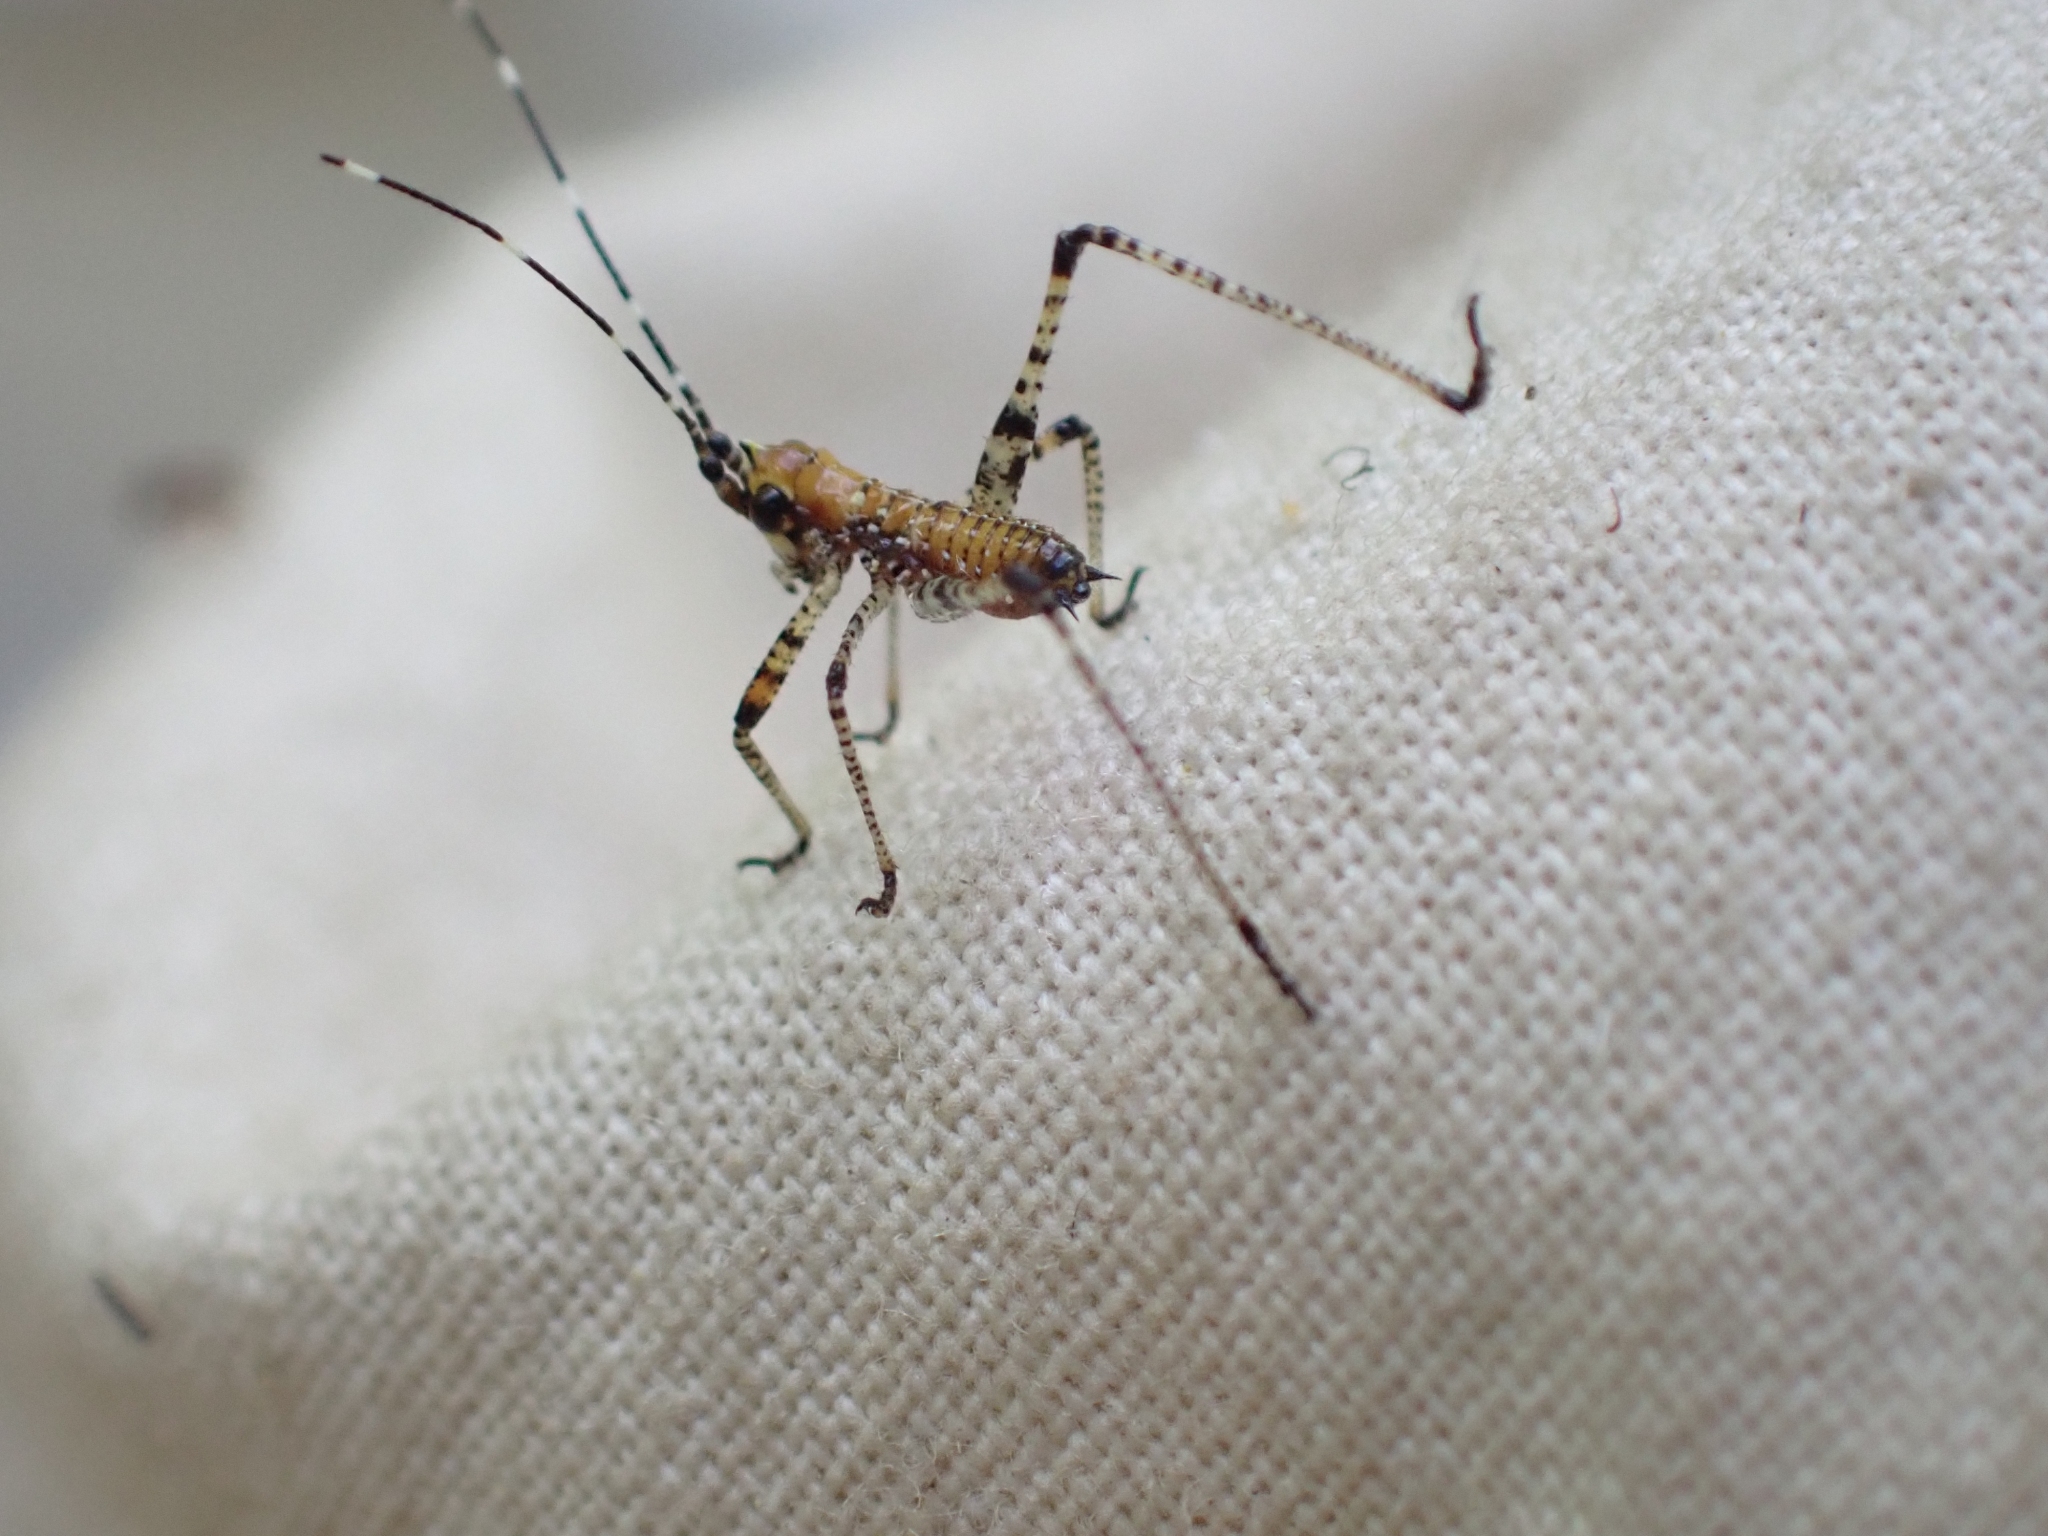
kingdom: Animalia
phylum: Arthropoda
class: Insecta
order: Orthoptera
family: Tettigoniidae
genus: Scudderia
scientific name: Scudderia furcata
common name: Fork-tailed bush katydid
